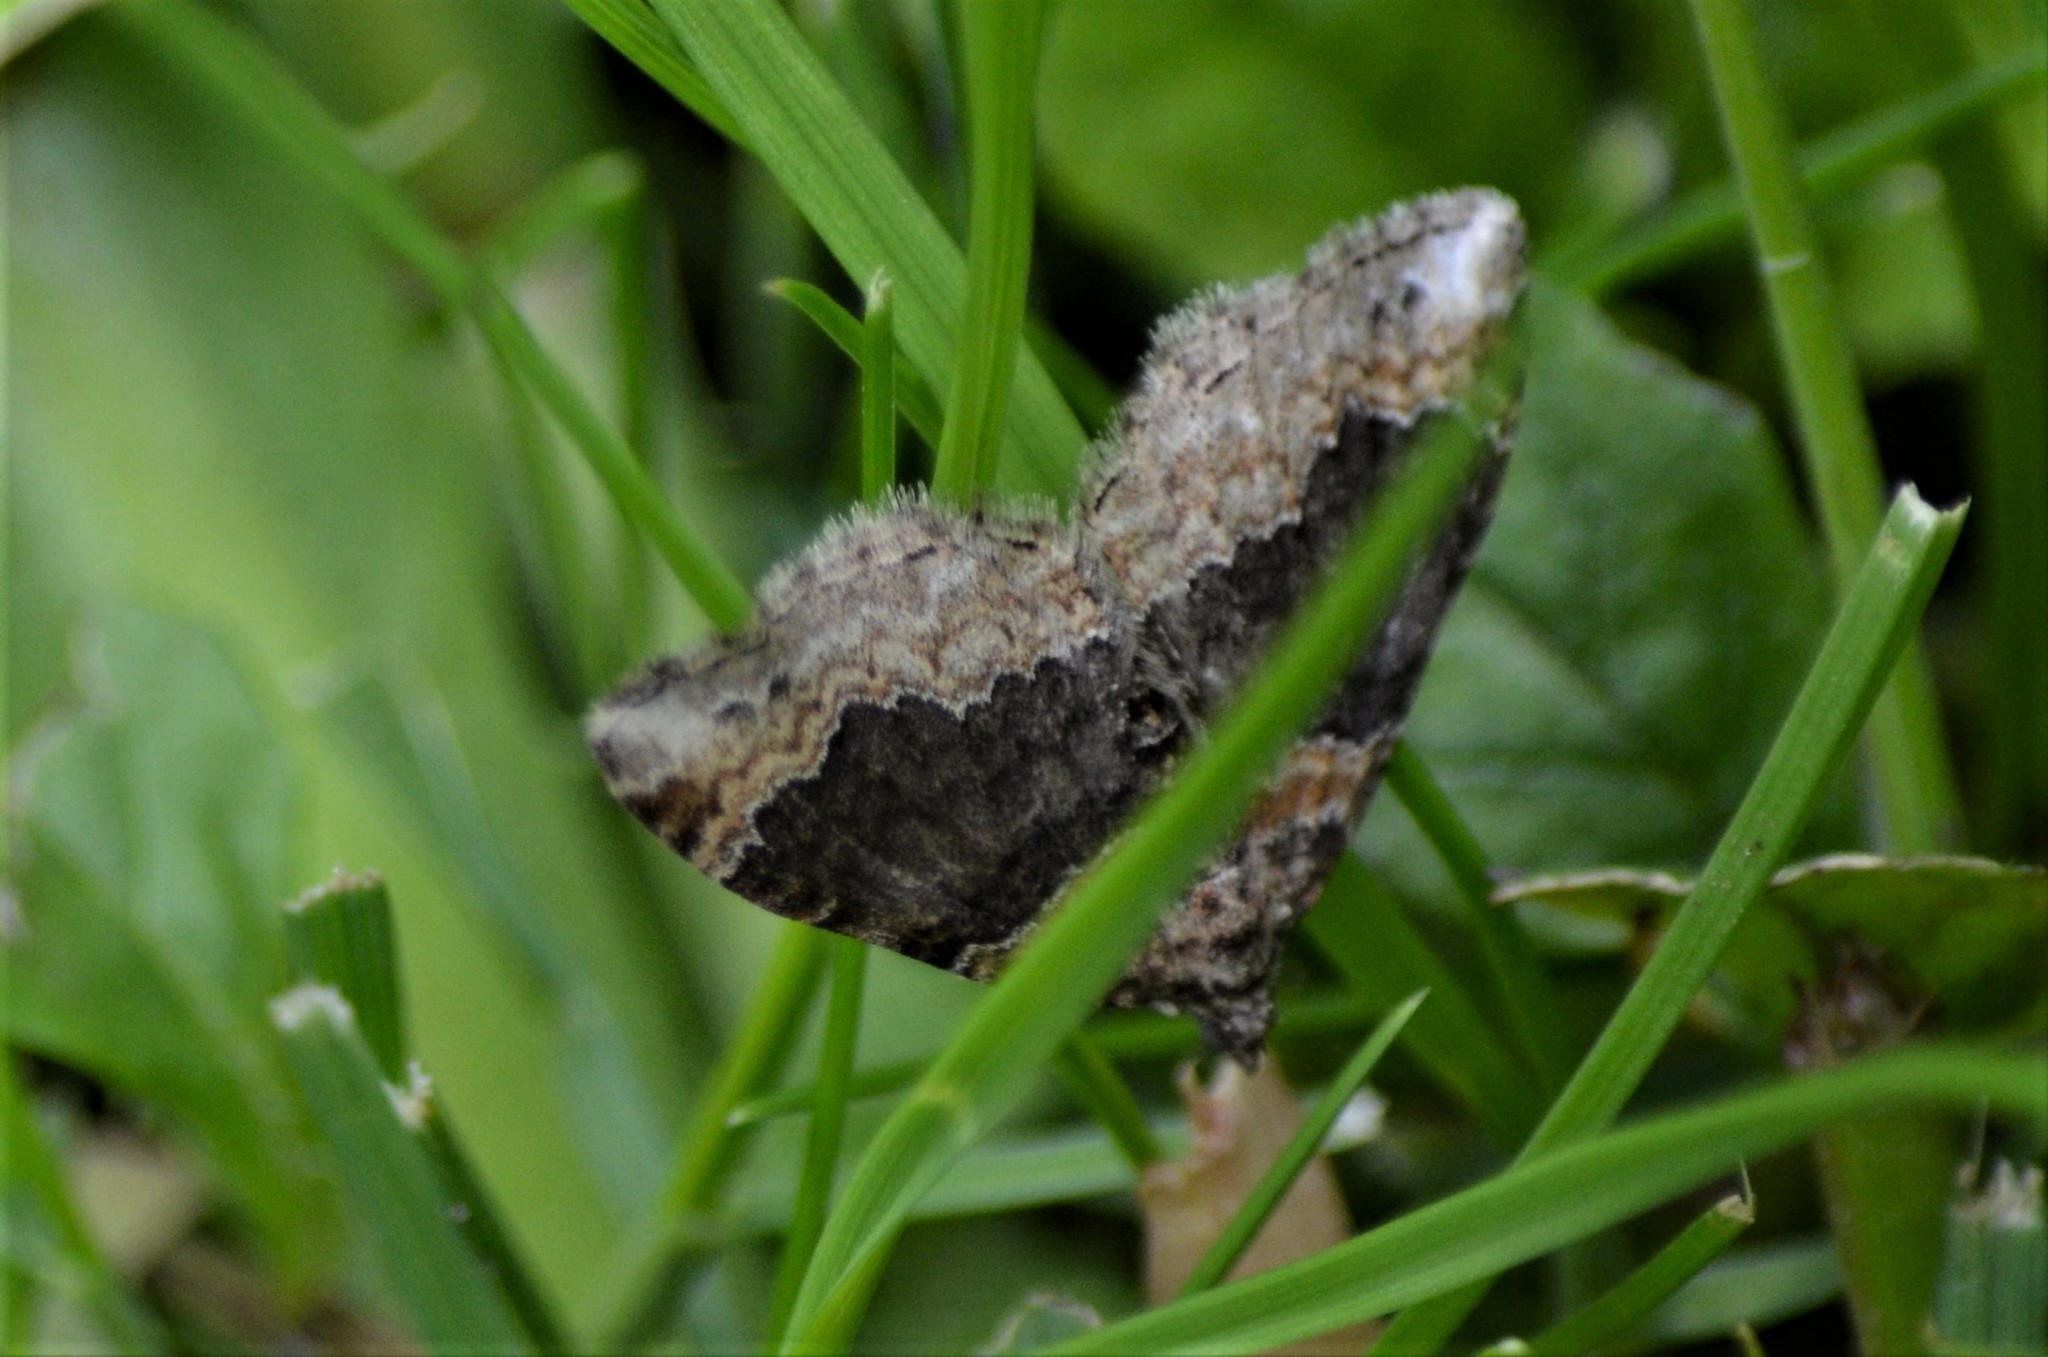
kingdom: Animalia
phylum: Arthropoda
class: Insecta
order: Lepidoptera
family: Geometridae
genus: Xanthorhoe
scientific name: Xanthorhoe ferrugata
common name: Dark-barred twin-spot carpet
